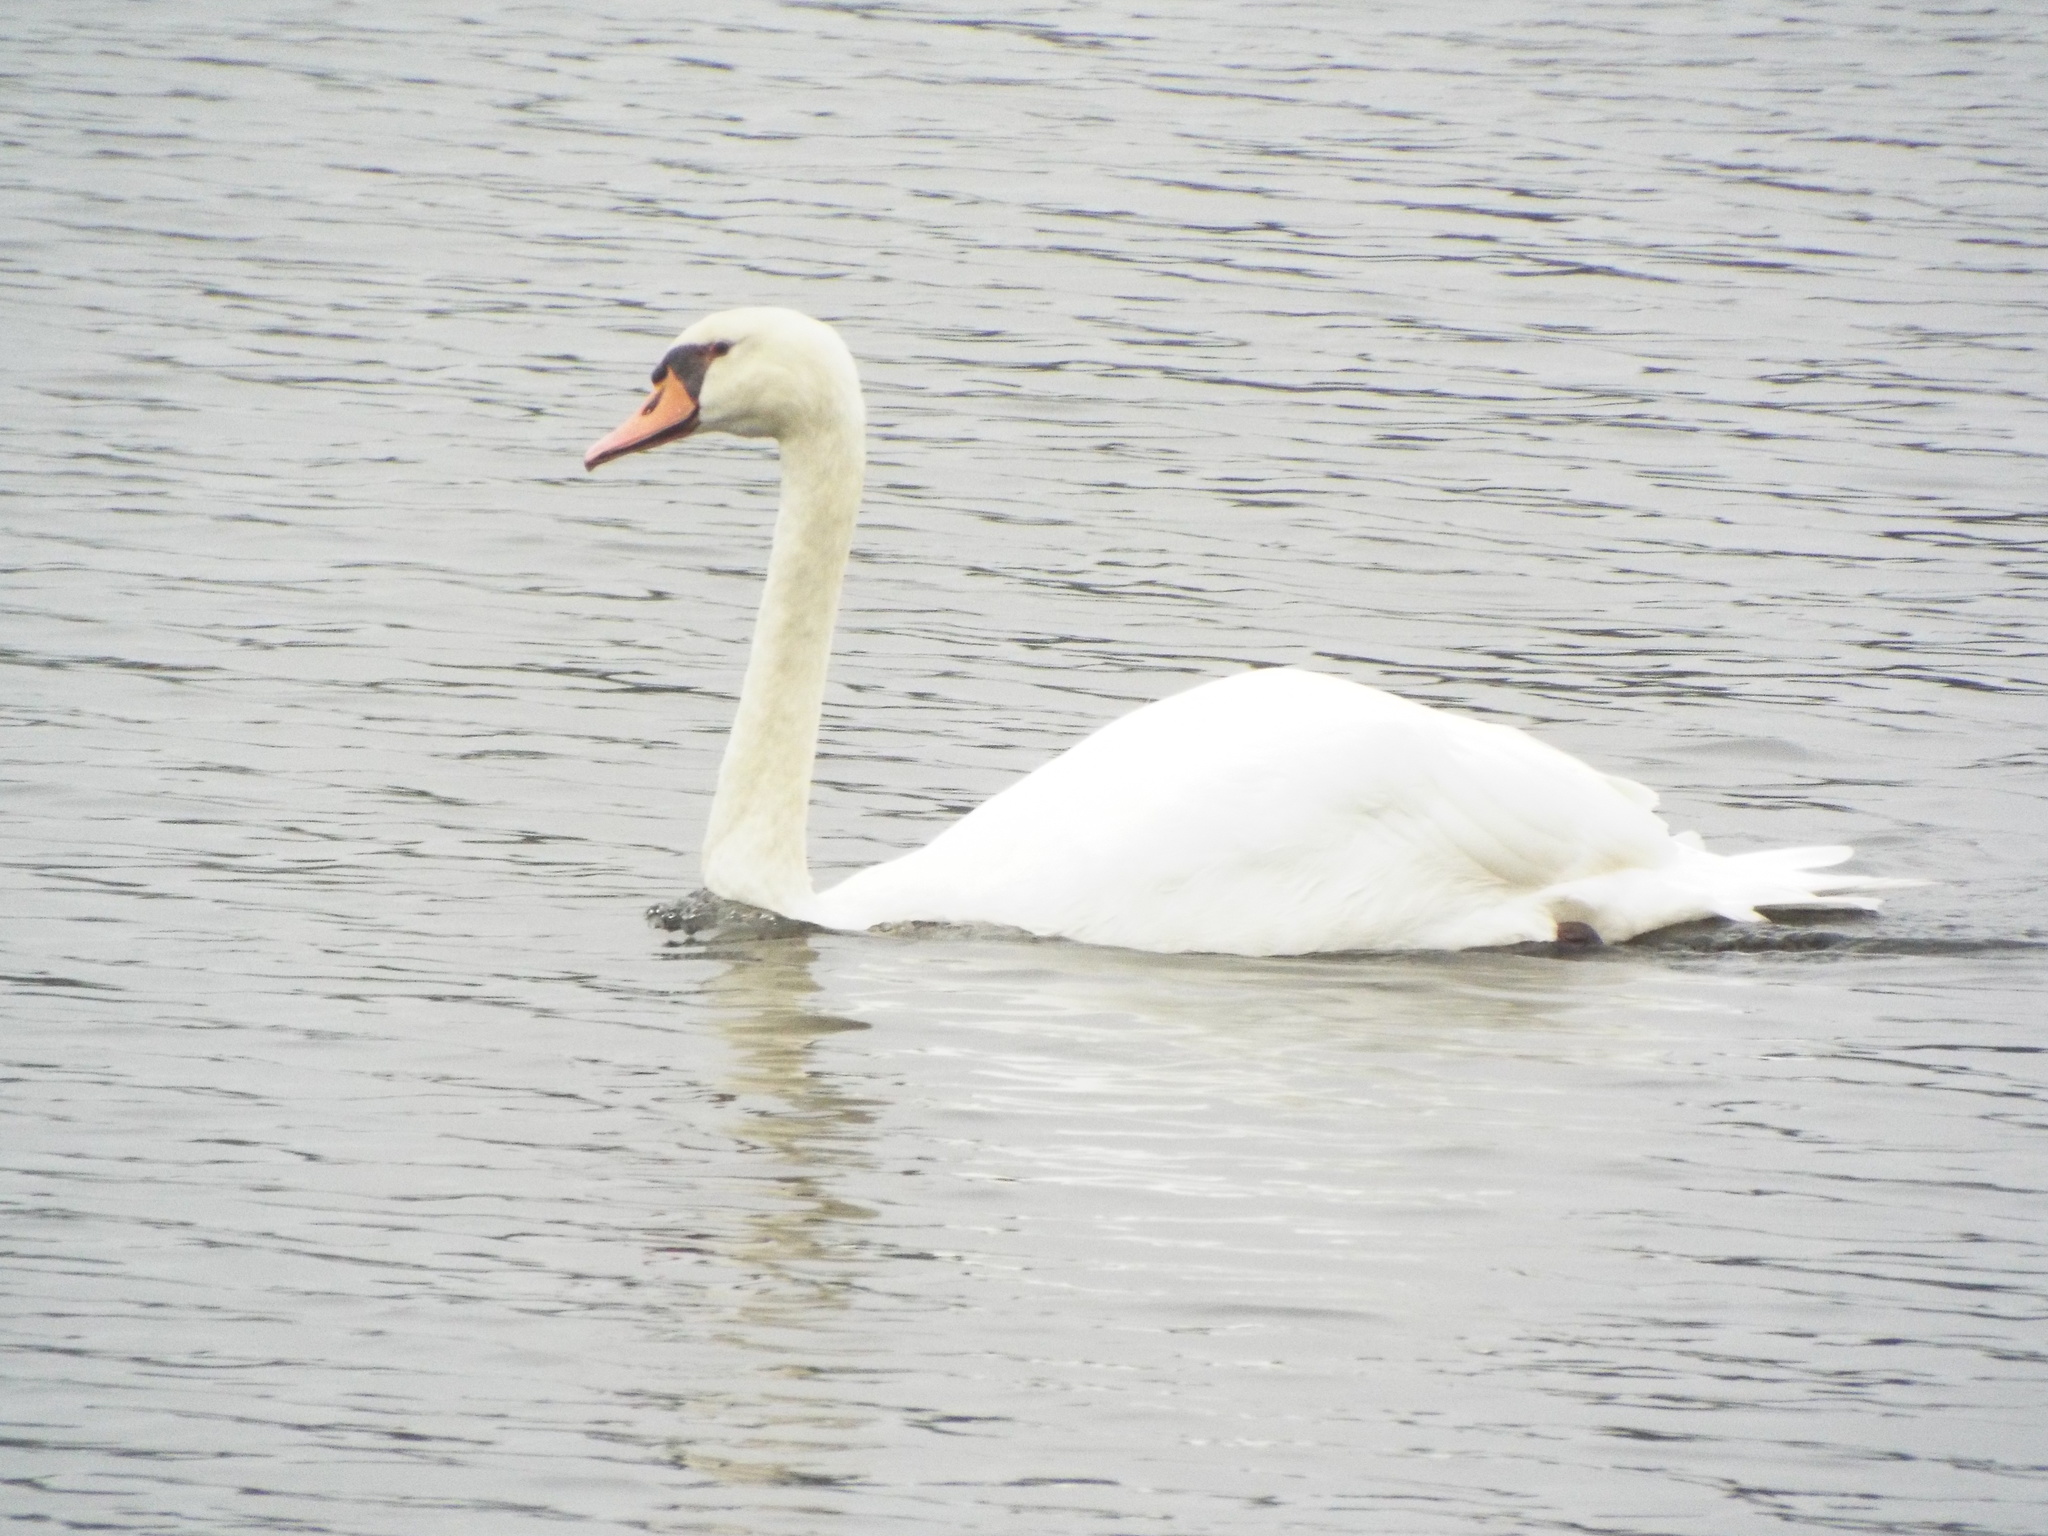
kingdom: Animalia
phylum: Chordata
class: Aves
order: Anseriformes
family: Anatidae
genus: Cygnus
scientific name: Cygnus olor
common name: Mute swan
